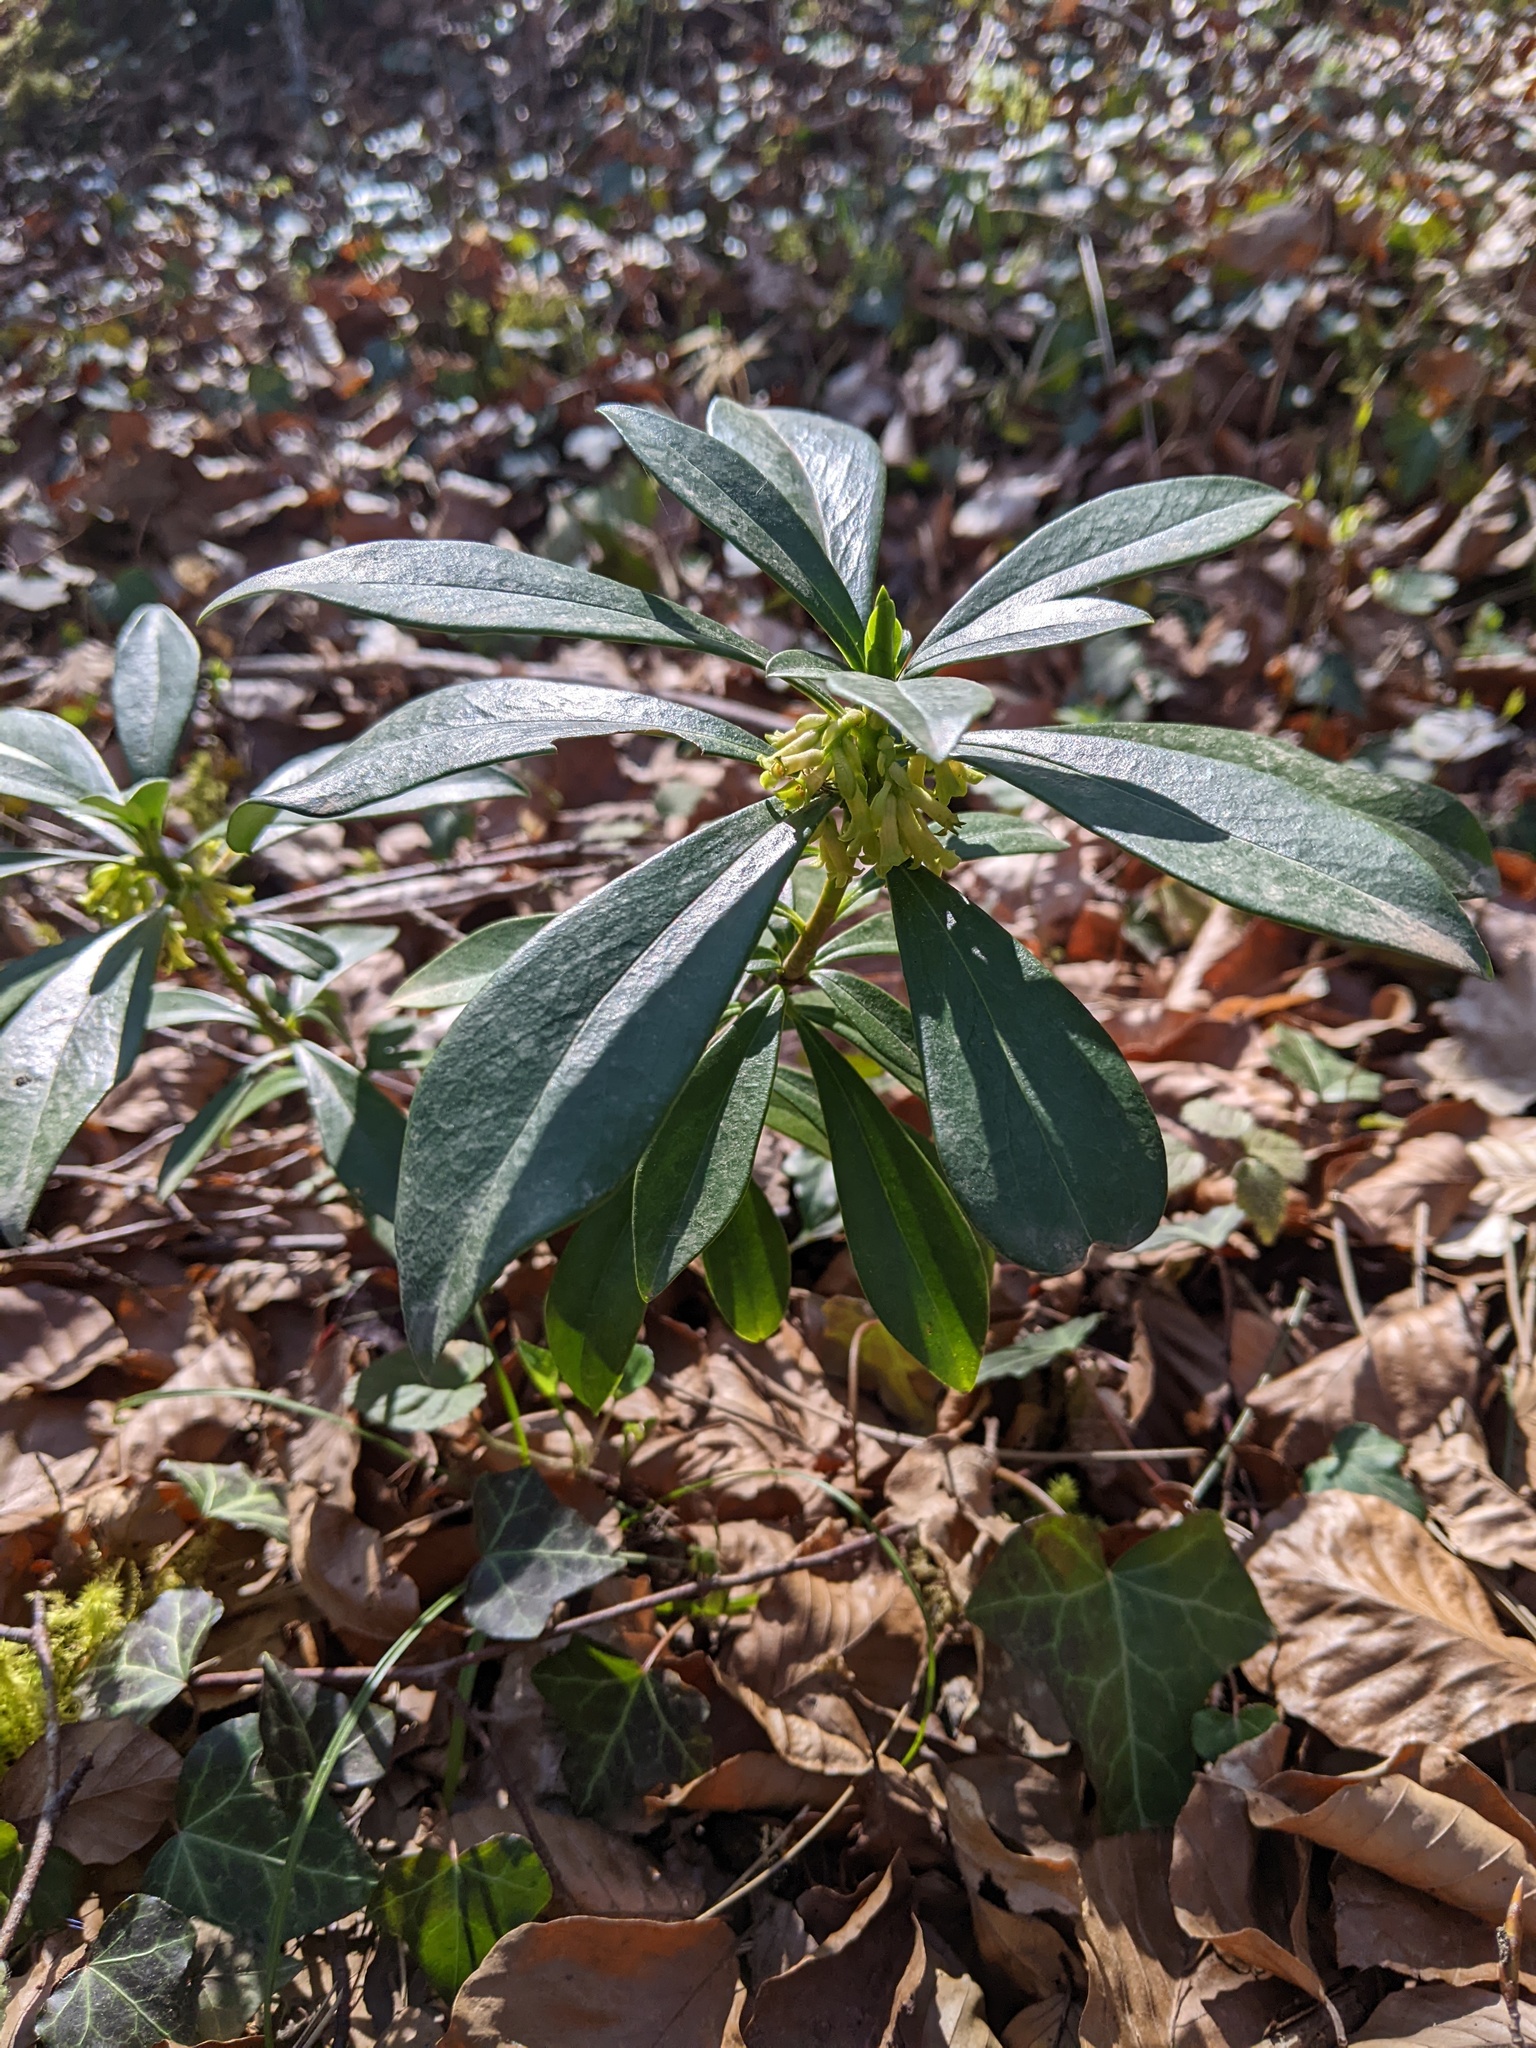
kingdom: Plantae
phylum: Tracheophyta
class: Magnoliopsida
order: Malvales
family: Thymelaeaceae
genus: Daphne
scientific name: Daphne laureola
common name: Spurge-laurel
